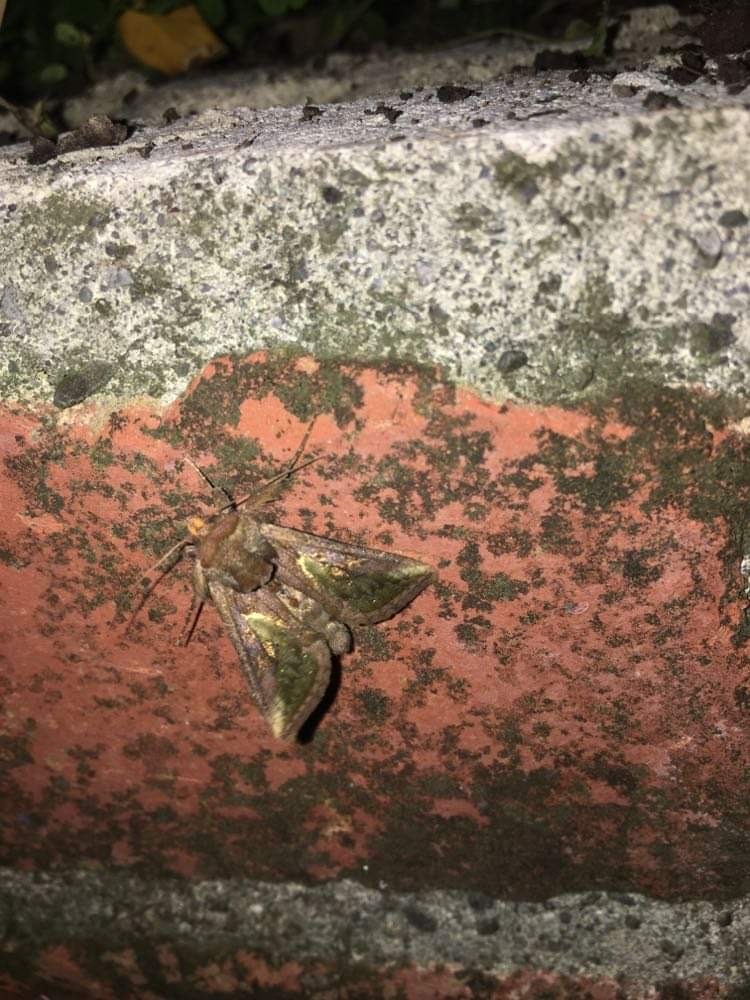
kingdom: Animalia
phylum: Arthropoda
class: Insecta
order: Lepidoptera
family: Noctuidae
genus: Thysanoplusia
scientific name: Thysanoplusia orichalcea
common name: Slender burnished brass, golden plusia
